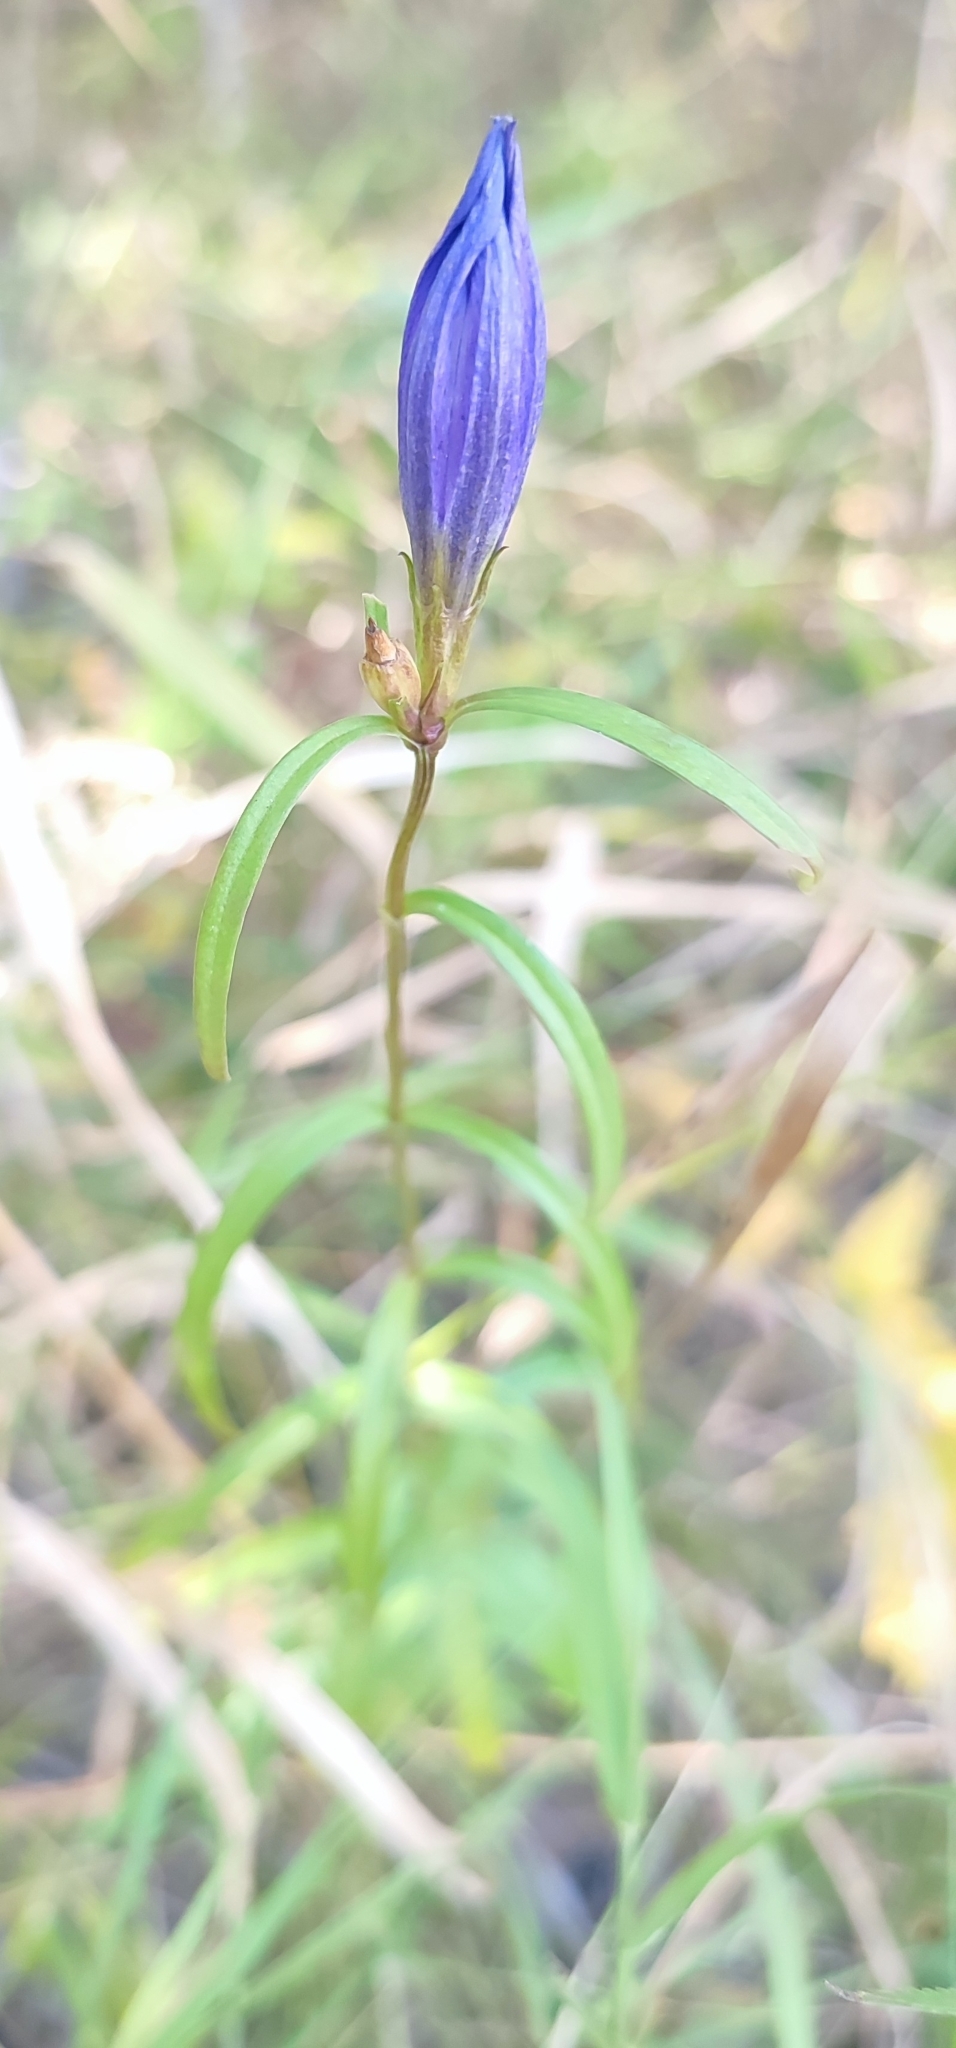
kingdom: Plantae
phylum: Tracheophyta
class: Magnoliopsida
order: Gentianales
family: Gentianaceae
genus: Gentiana
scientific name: Gentiana pneumonanthe
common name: Marsh gentian
